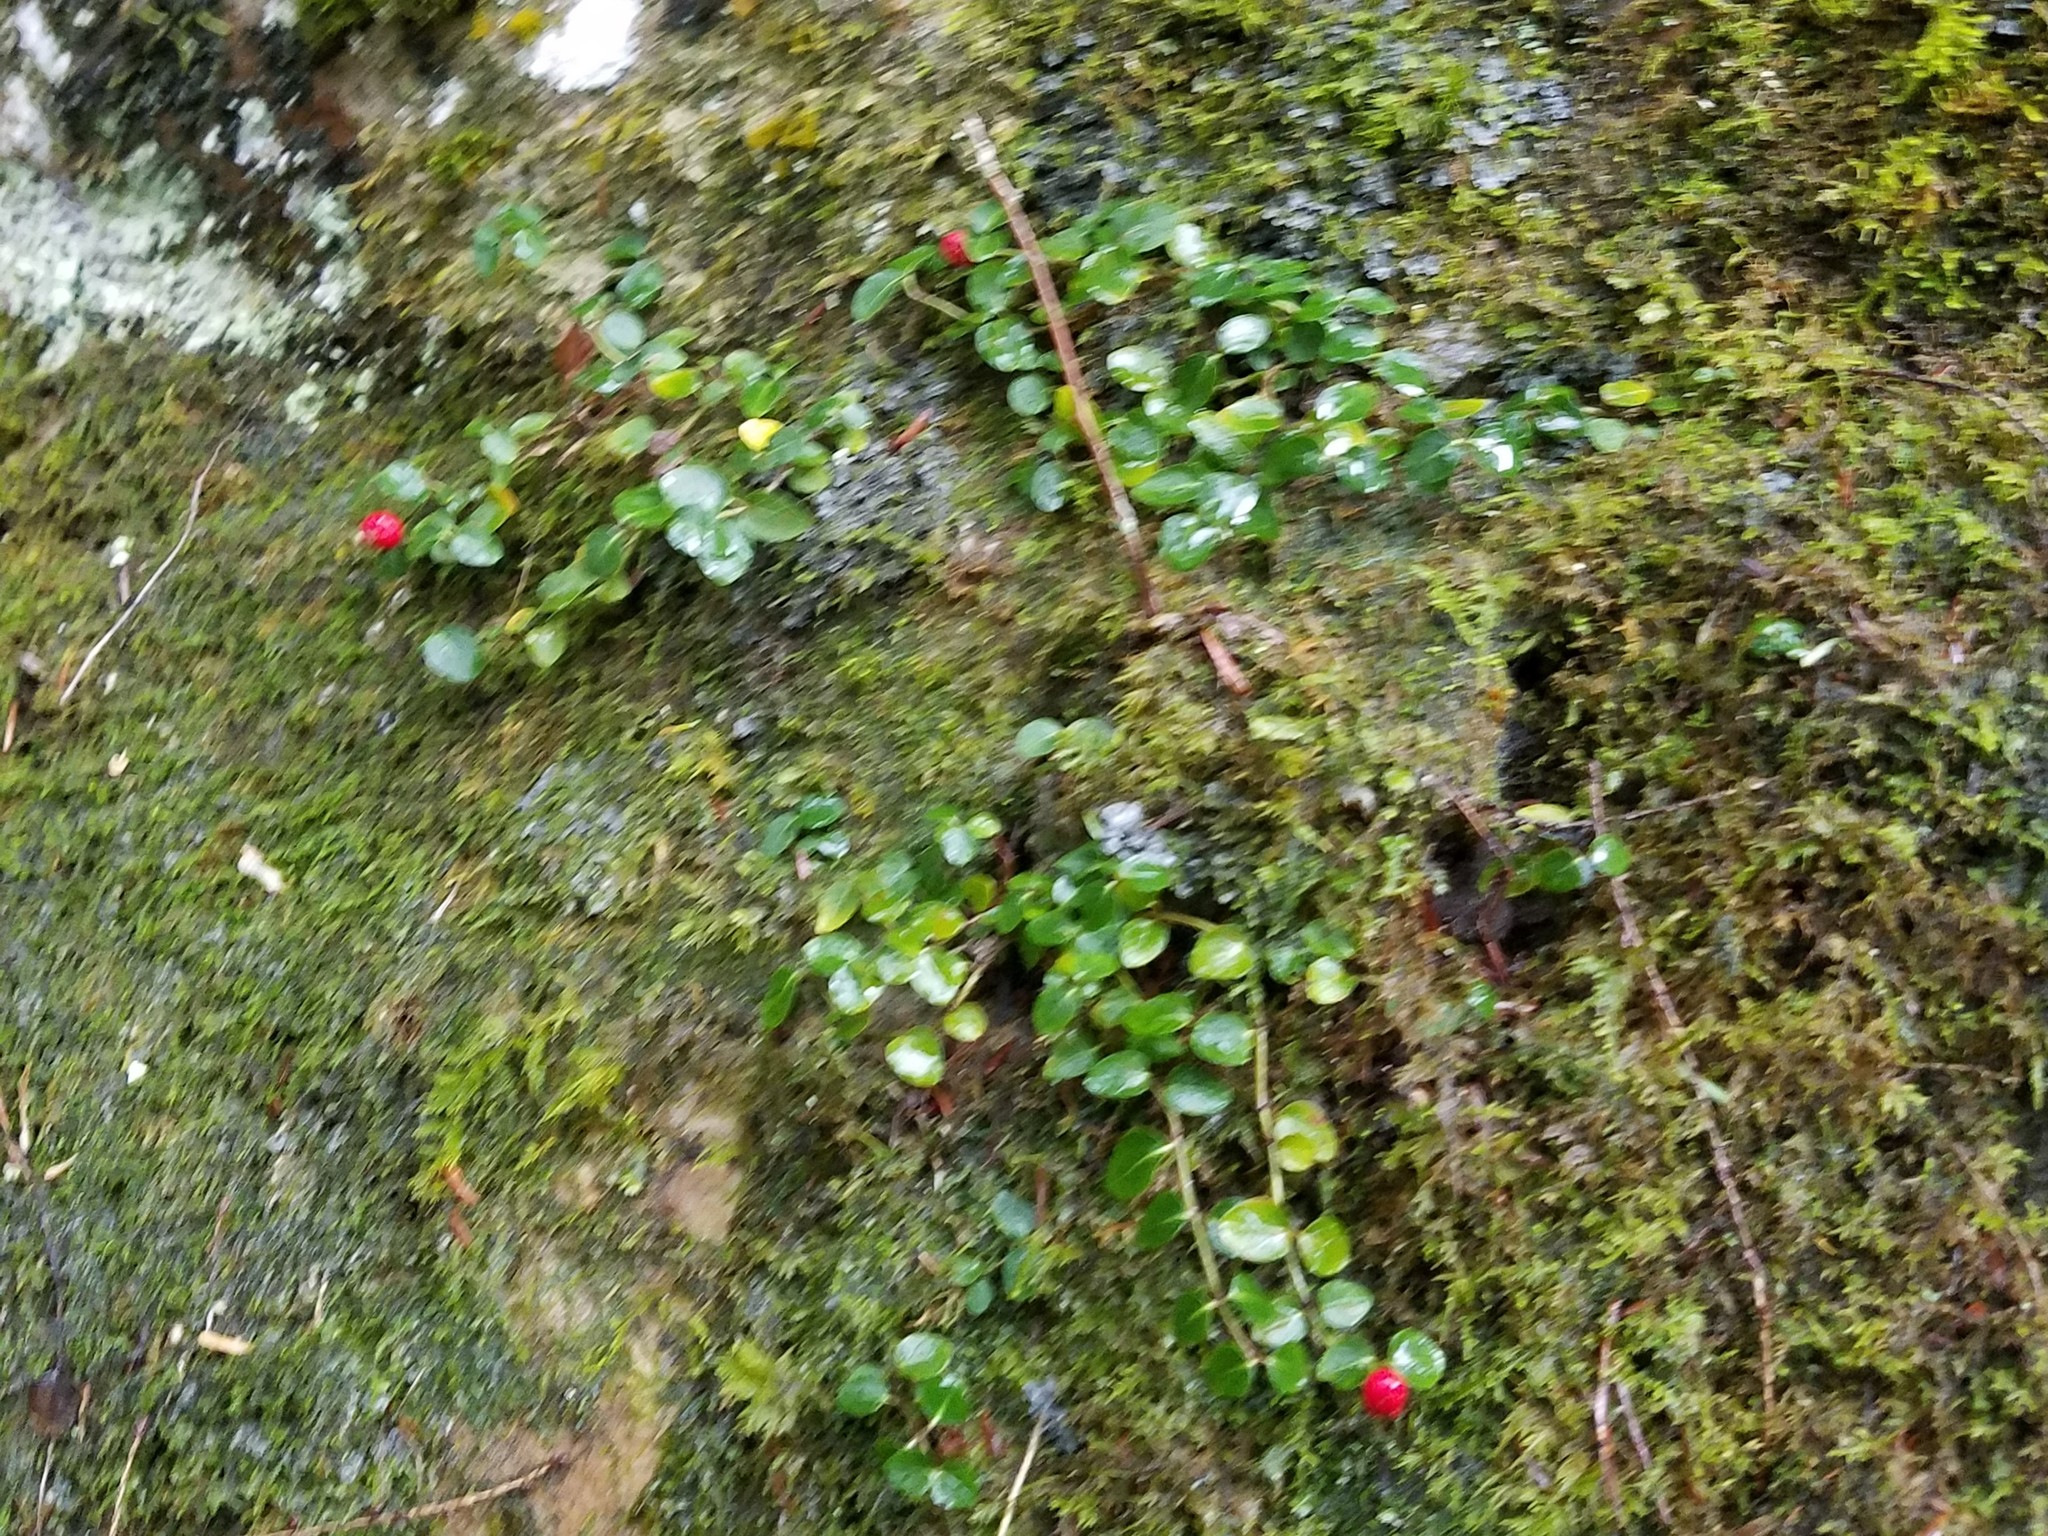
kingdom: Plantae
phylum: Tracheophyta
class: Magnoliopsida
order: Gentianales
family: Rubiaceae
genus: Mitchella
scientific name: Mitchella repens
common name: Partridge-berry
